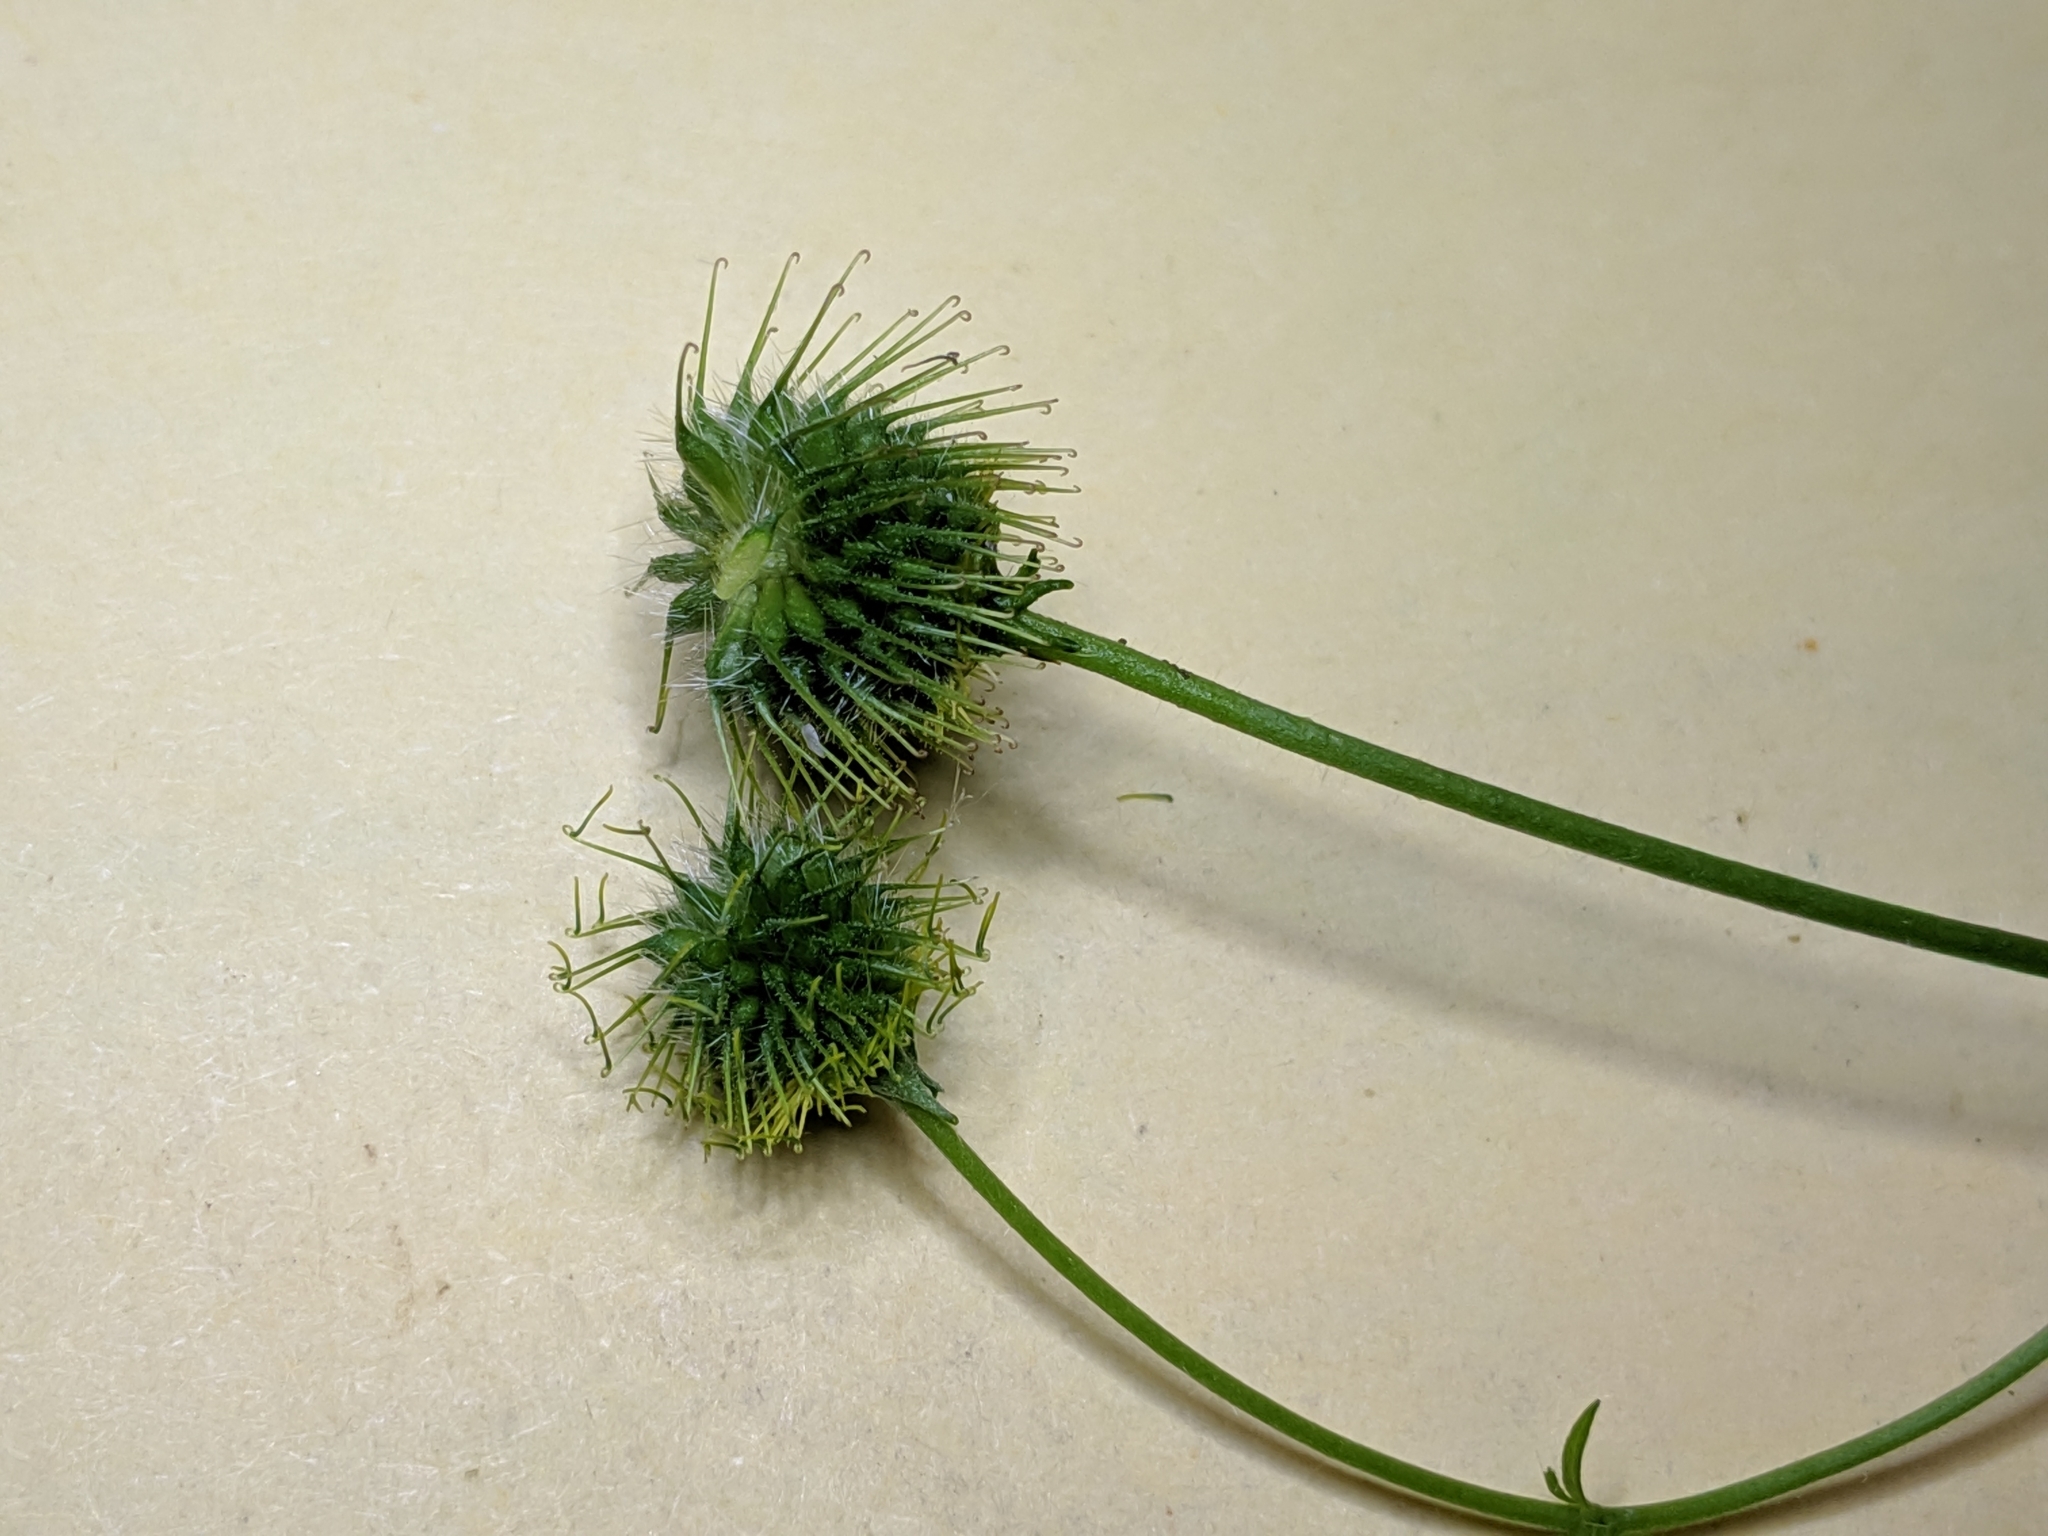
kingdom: Plantae
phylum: Tracheophyta
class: Magnoliopsida
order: Rosales
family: Rosaceae
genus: Geum
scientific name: Geum macrophyllum
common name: Large-leaved avens
